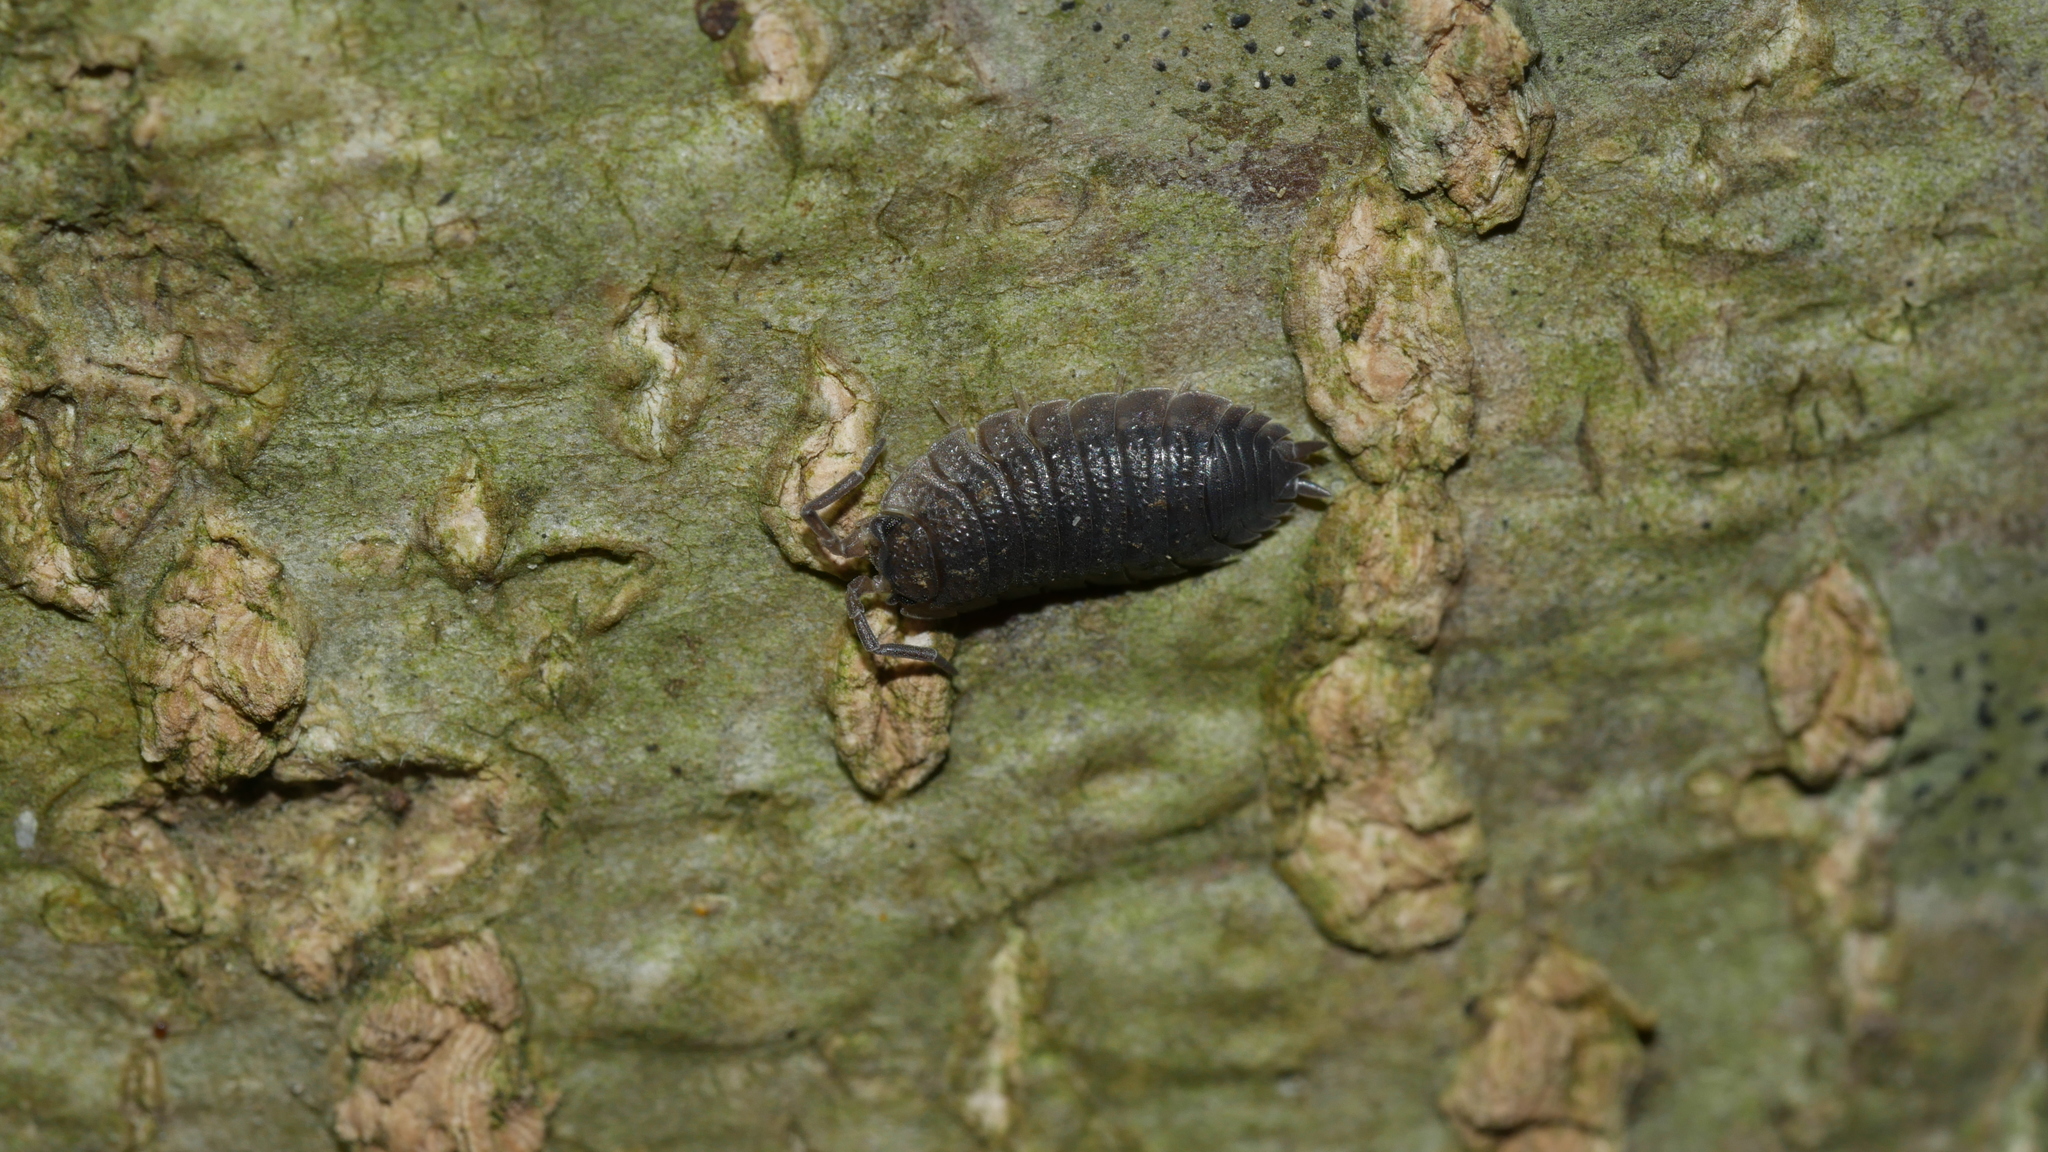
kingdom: Animalia
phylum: Arthropoda
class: Malacostraca
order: Isopoda
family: Porcellionidae
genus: Porcellio
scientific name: Porcellio scaber
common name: Common rough woodlouse
